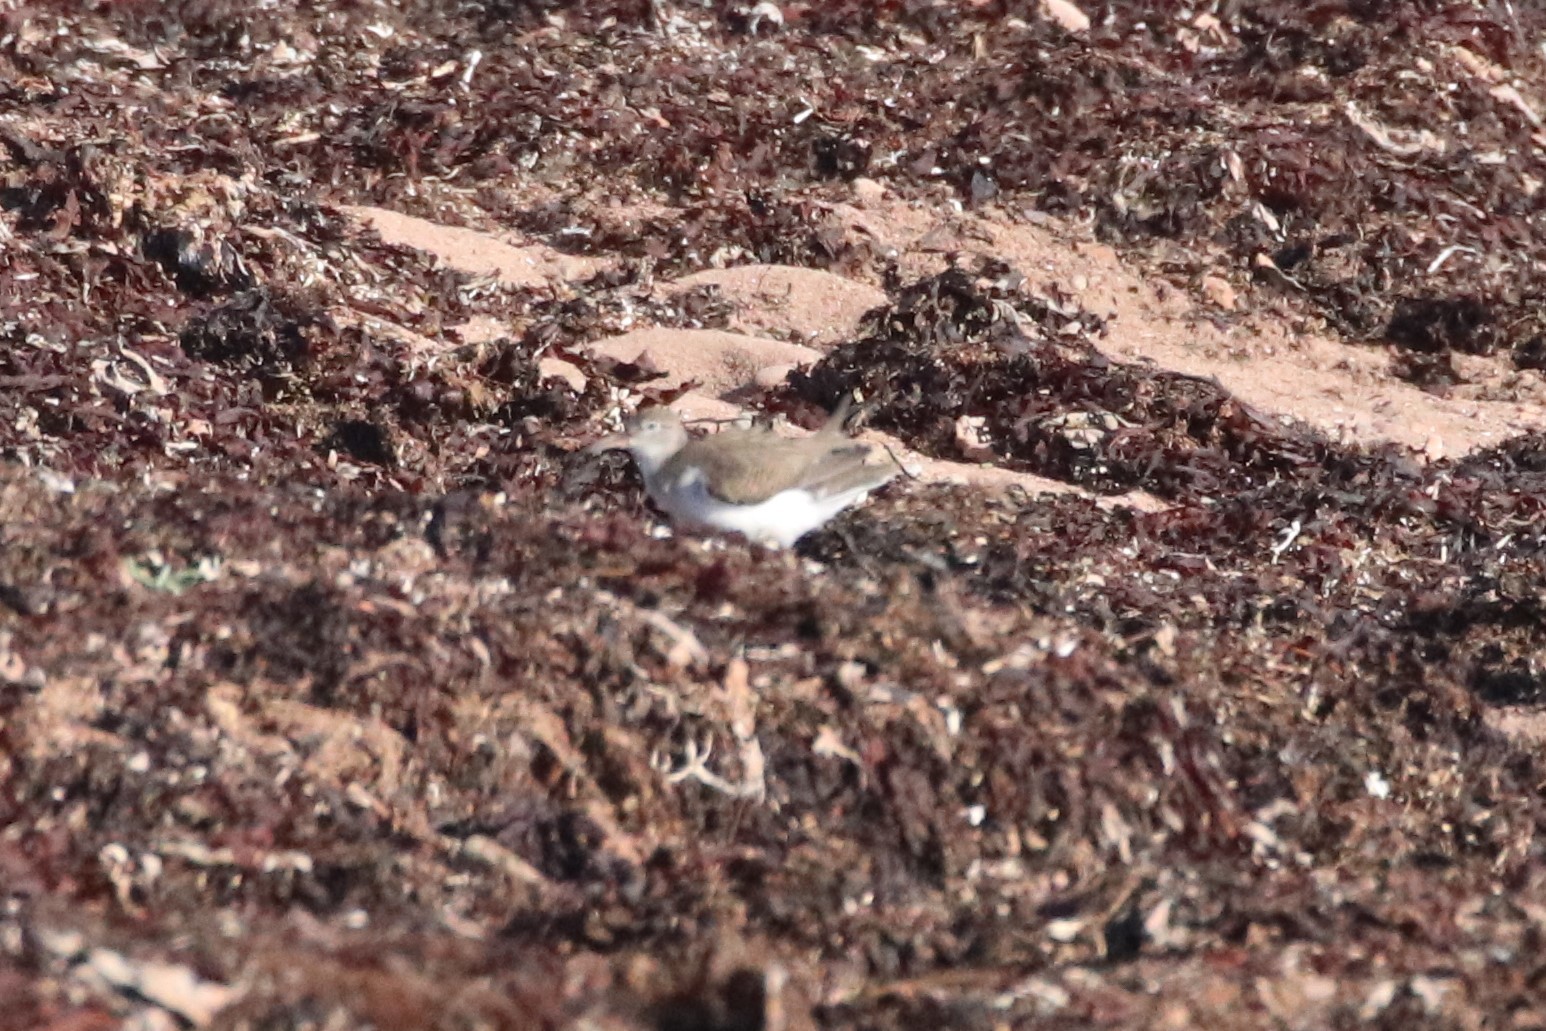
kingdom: Animalia
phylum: Chordata
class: Aves
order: Charadriiformes
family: Scolopacidae
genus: Actitis
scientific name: Actitis macularius
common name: Spotted sandpiper
